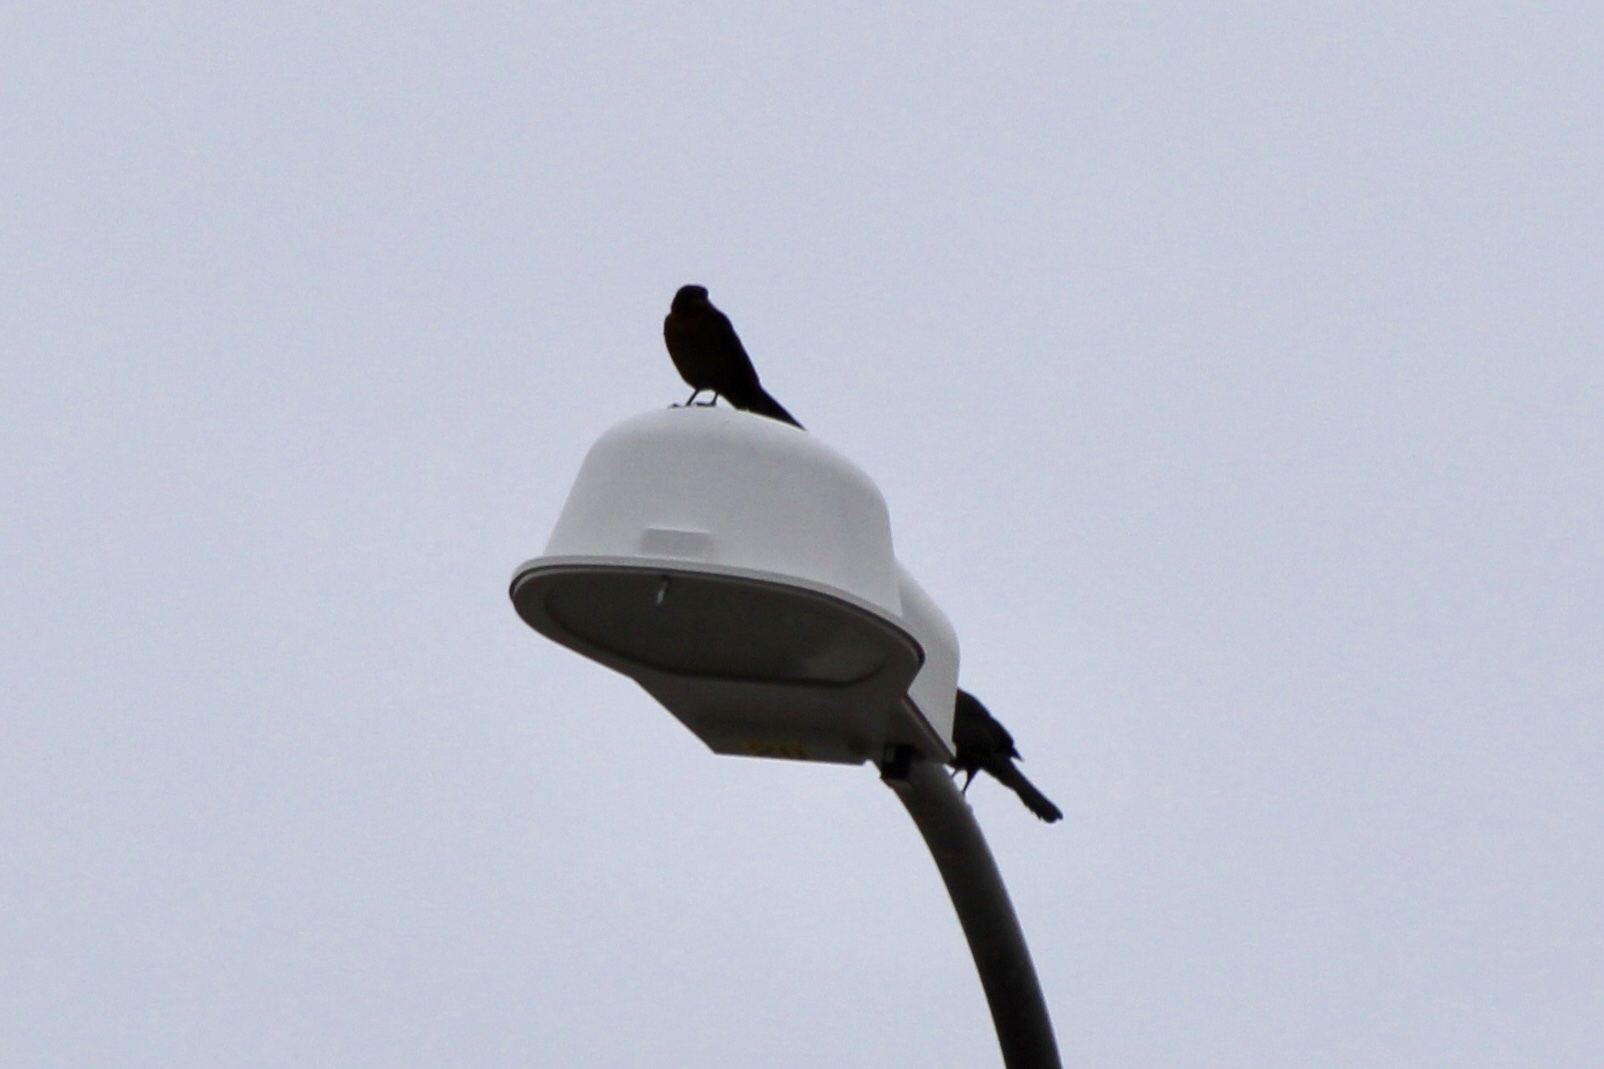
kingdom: Animalia
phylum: Chordata
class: Aves
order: Passeriformes
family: Icteridae
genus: Quiscalus
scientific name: Quiscalus mexicanus
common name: Great-tailed grackle
